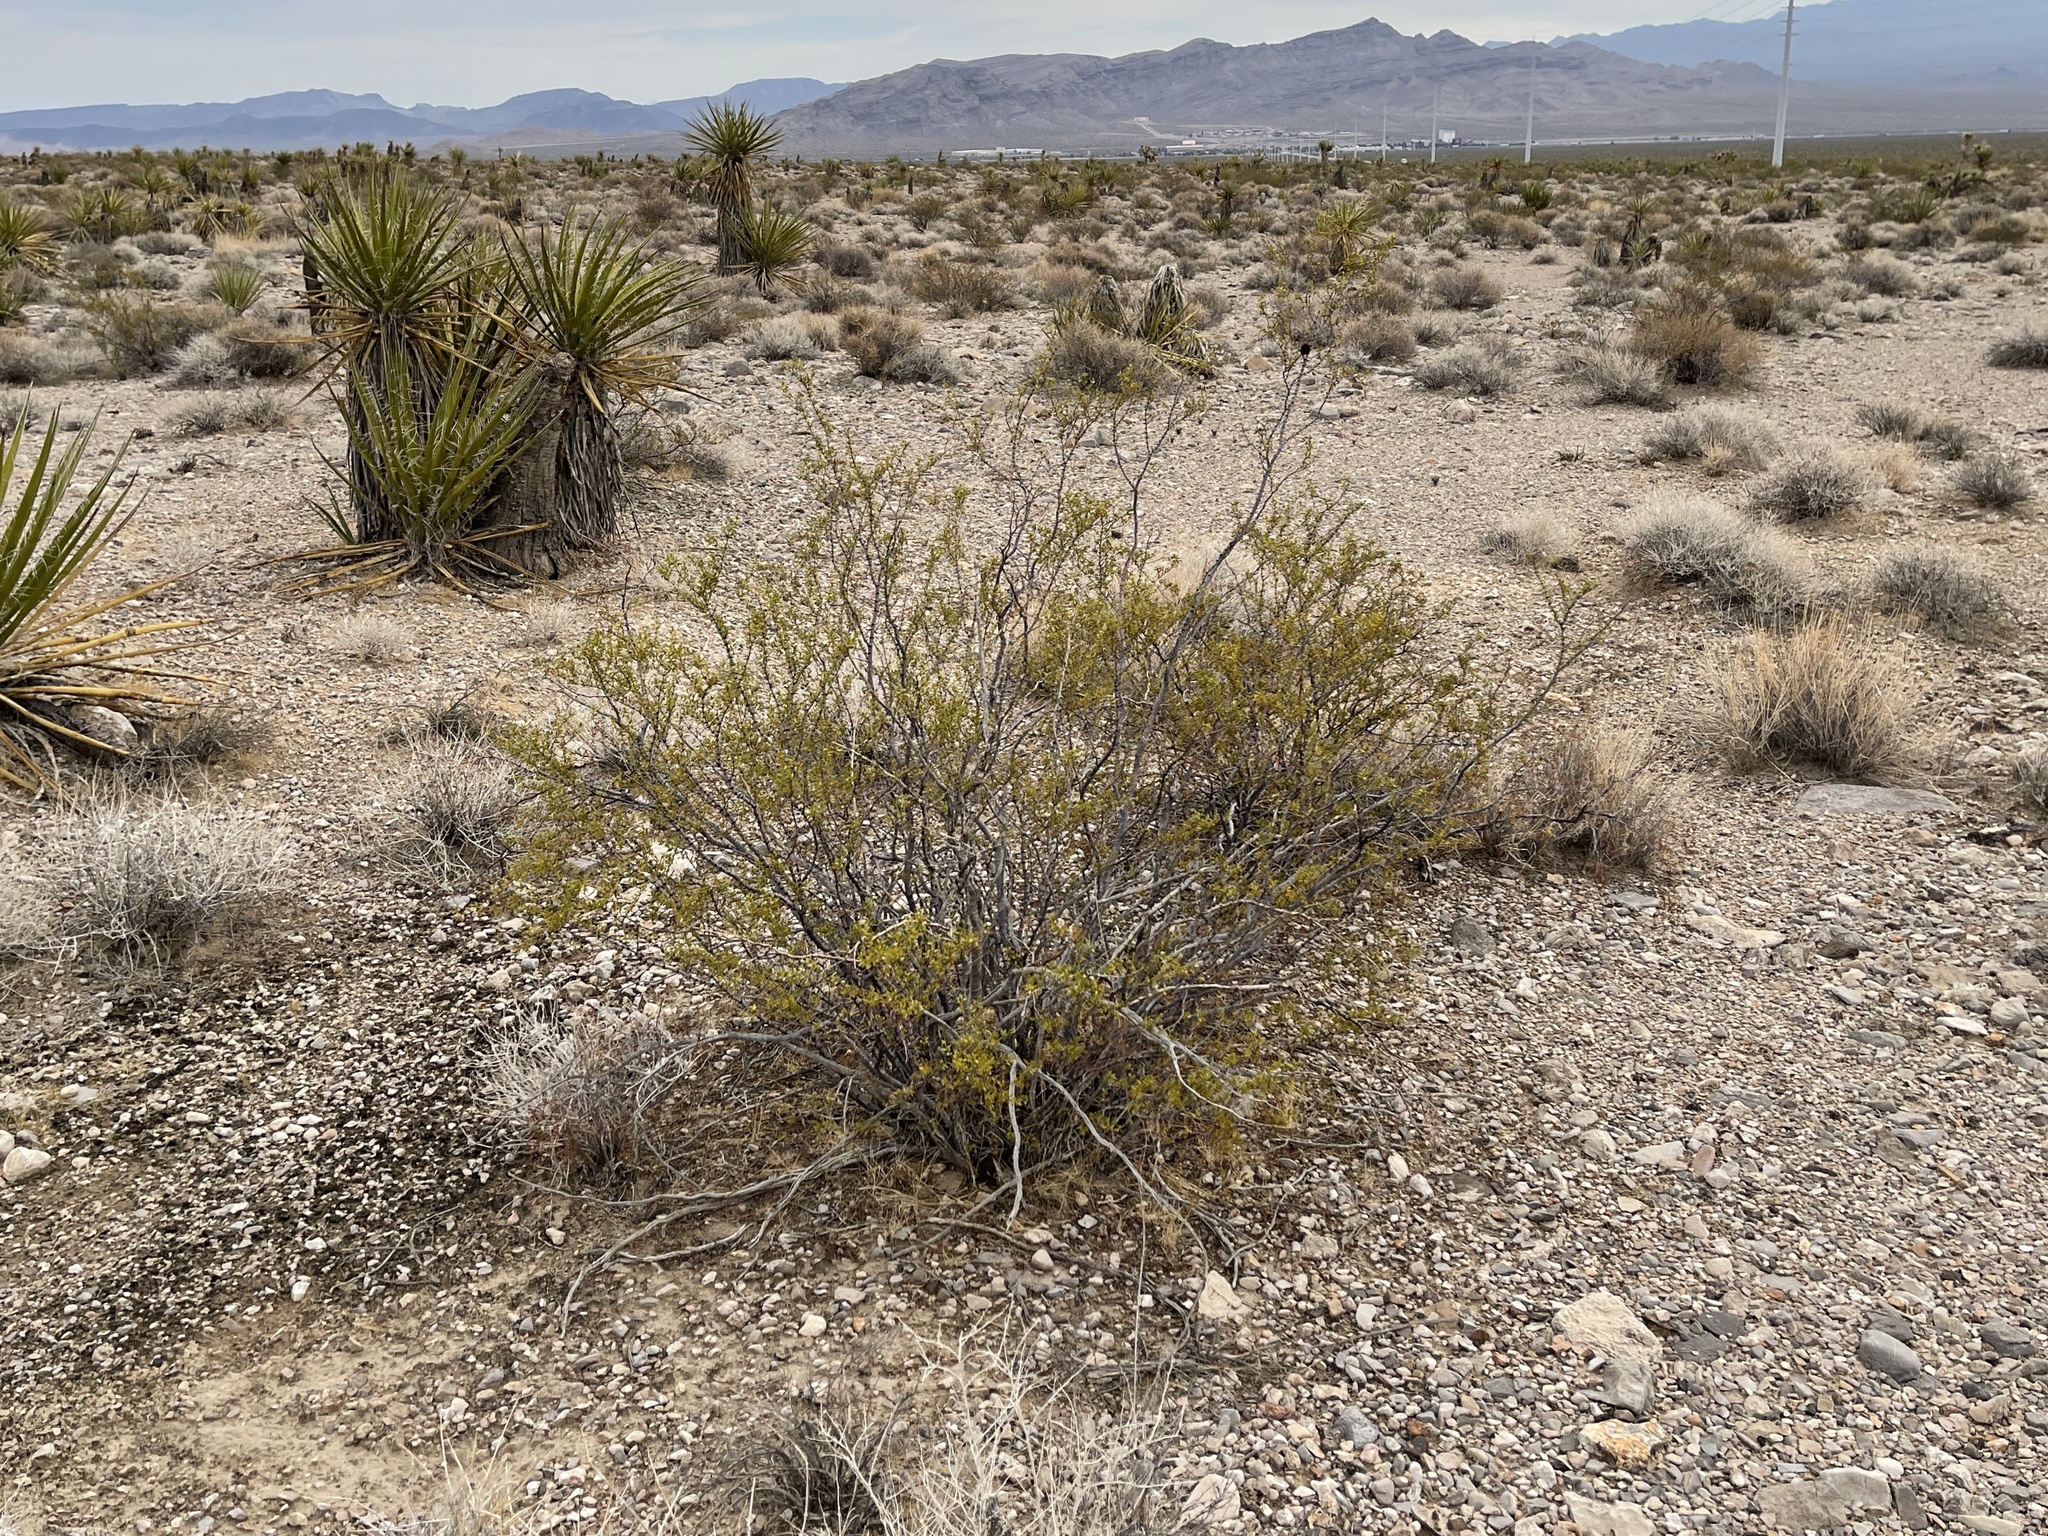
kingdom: Plantae
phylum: Tracheophyta
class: Magnoliopsida
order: Zygophyllales
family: Zygophyllaceae
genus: Larrea
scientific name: Larrea tridentata
